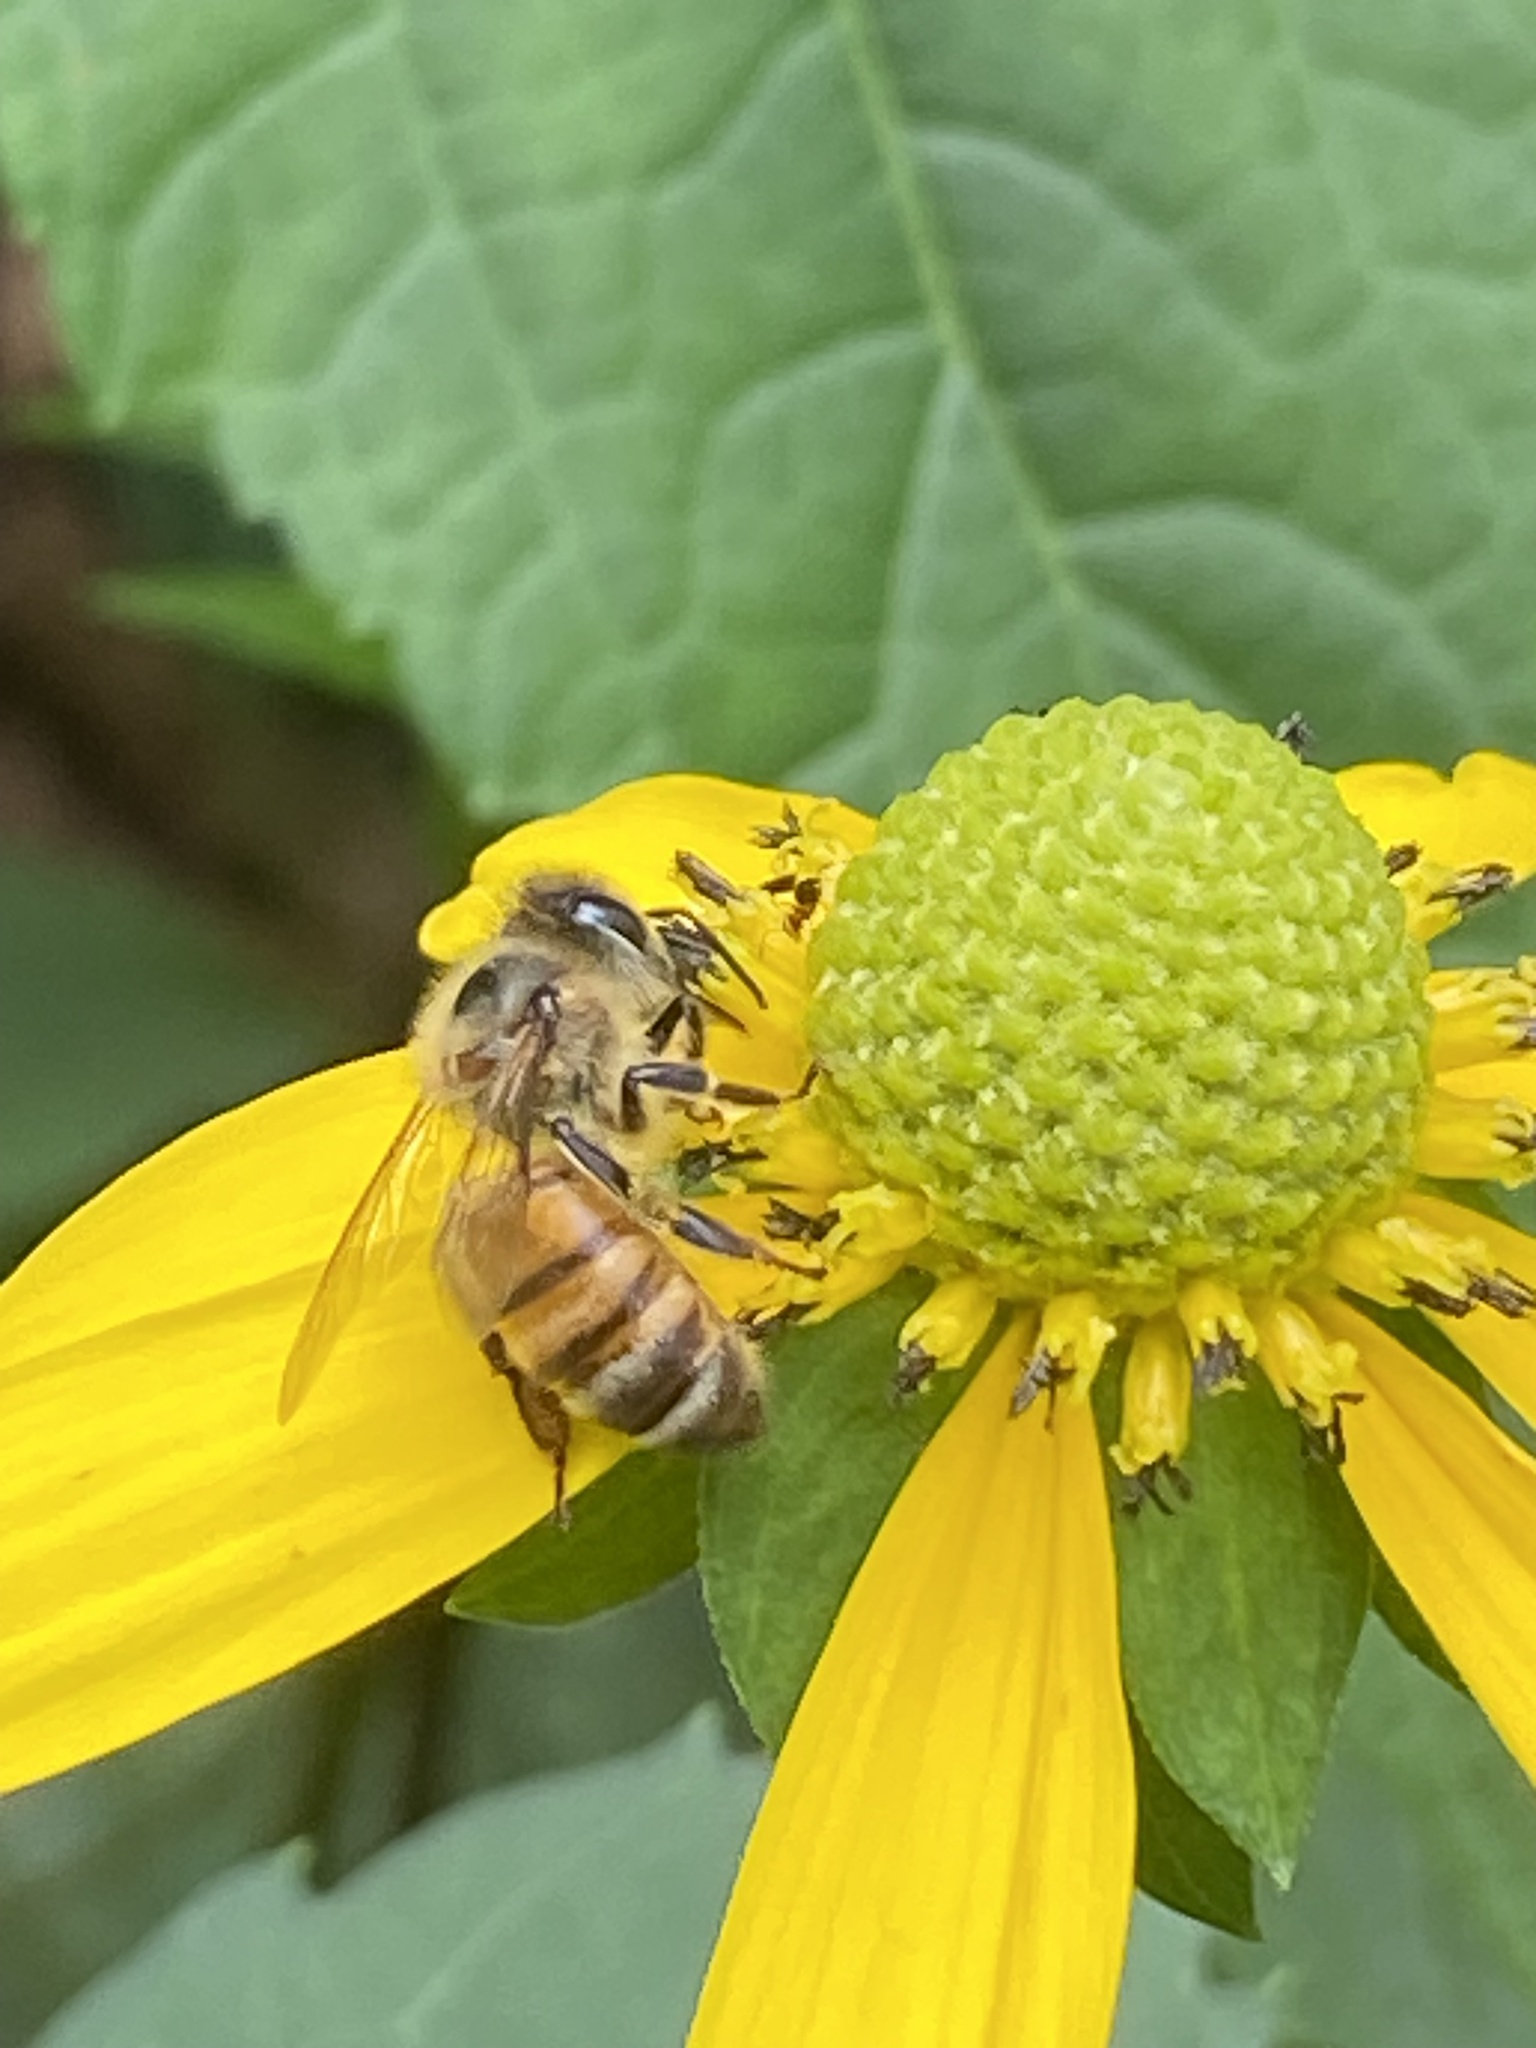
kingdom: Animalia
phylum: Arthropoda
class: Insecta
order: Hymenoptera
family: Apidae
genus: Apis
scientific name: Apis mellifera
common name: Honey bee
